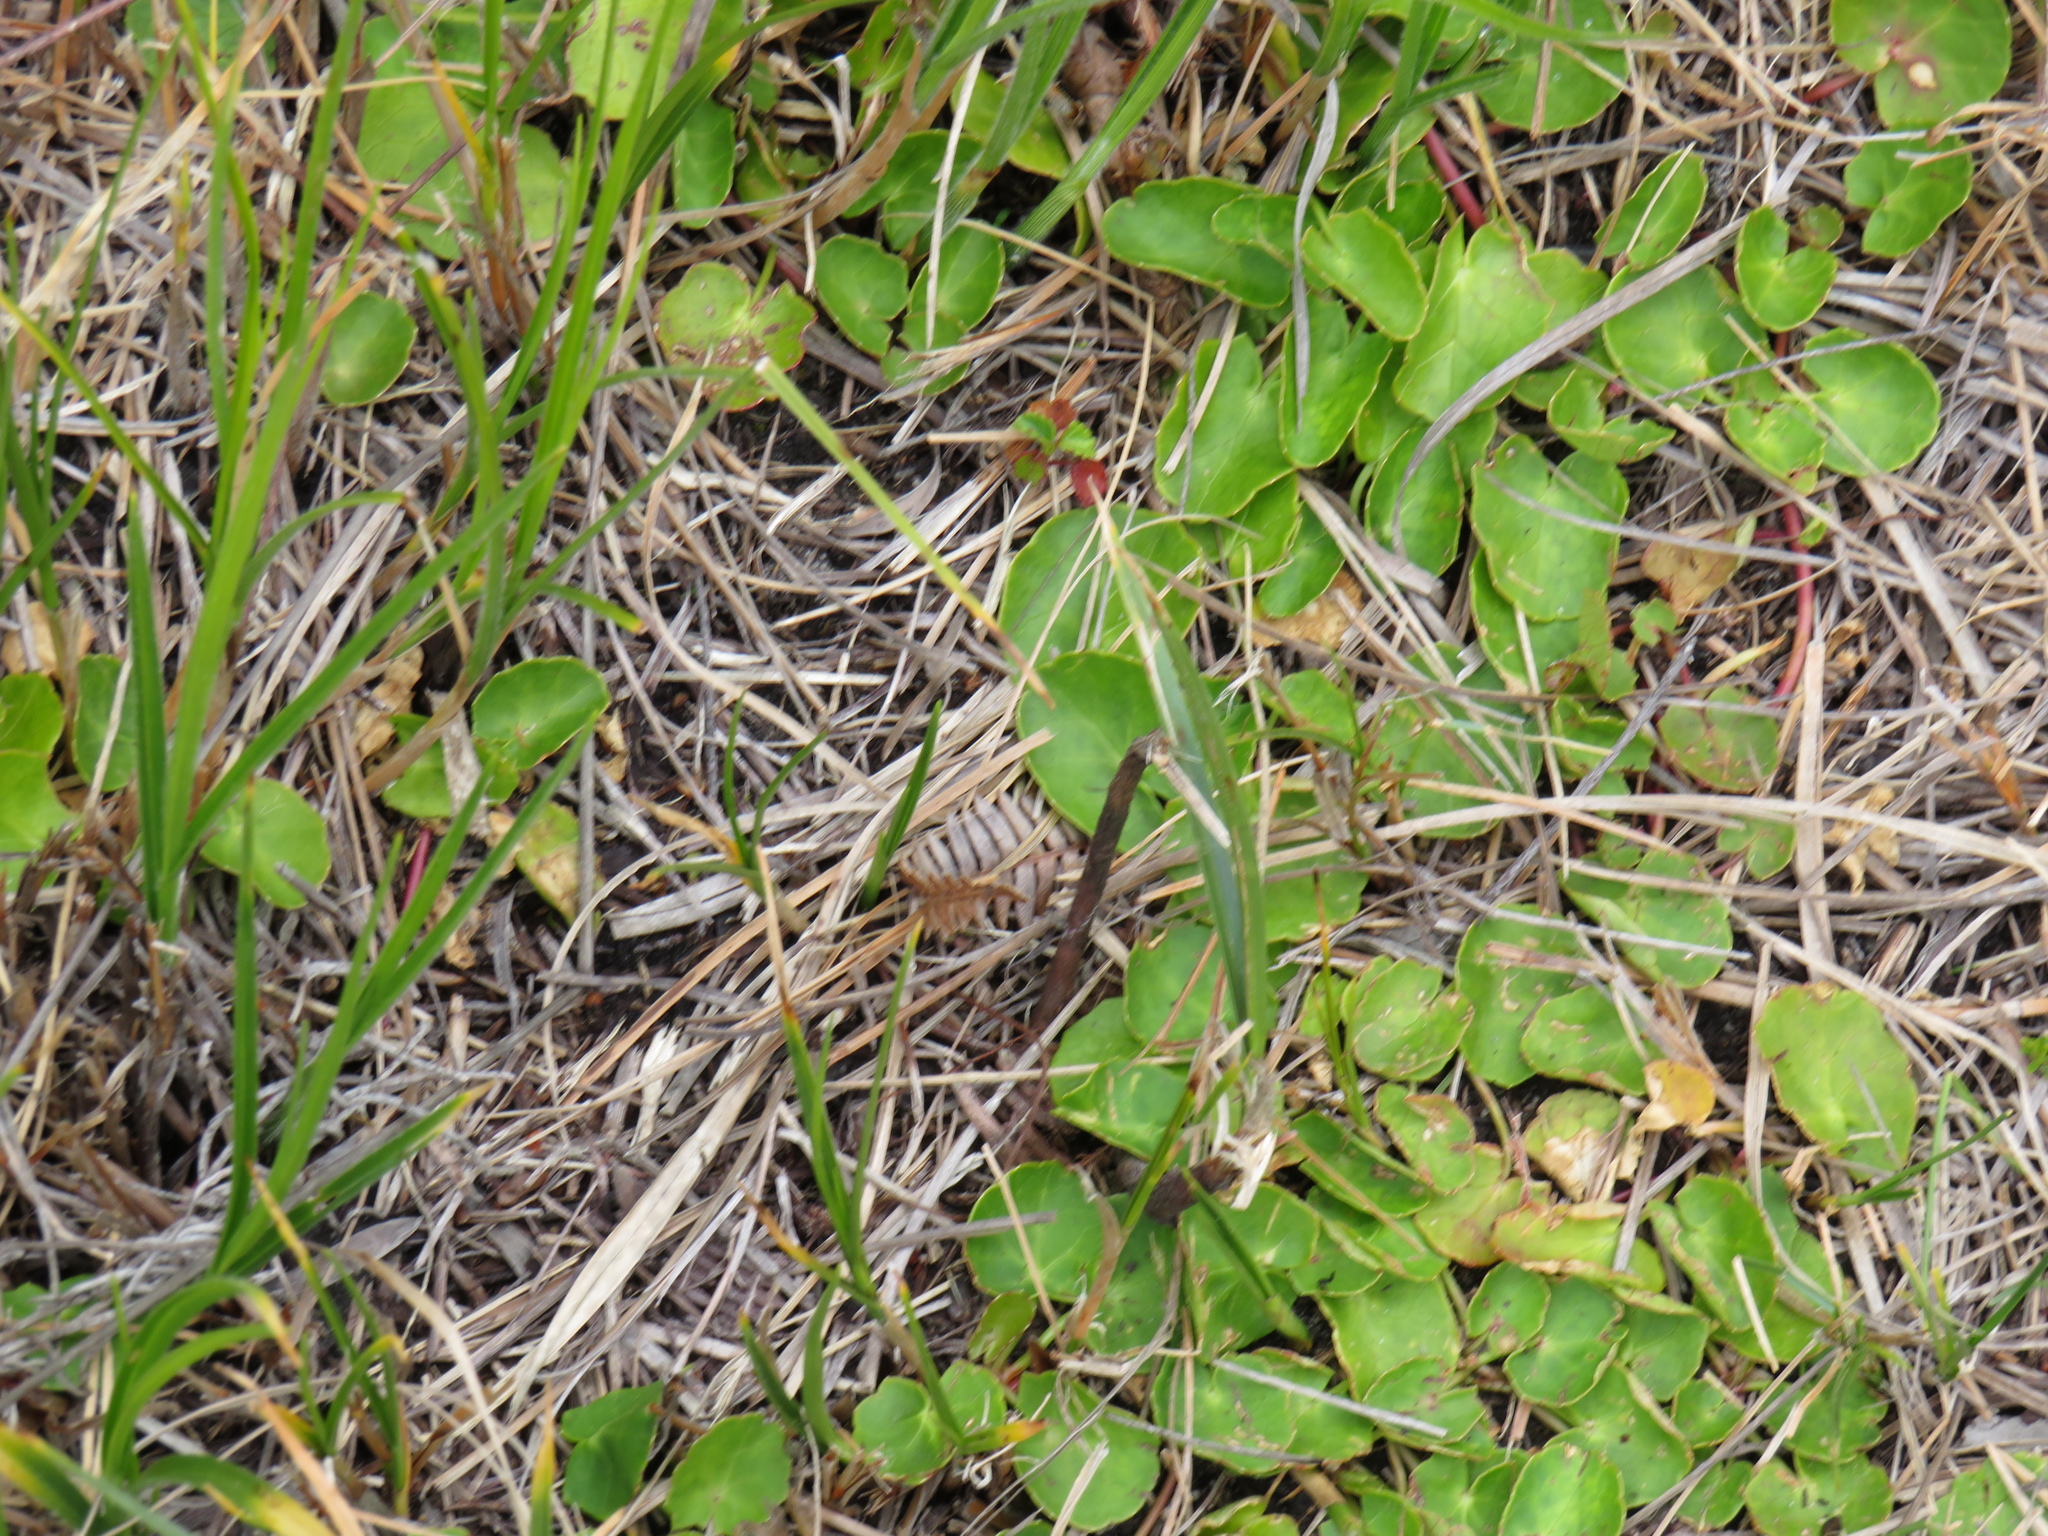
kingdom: Plantae
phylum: Tracheophyta
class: Magnoliopsida
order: Apiales
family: Apiaceae
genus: Centella
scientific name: Centella asiatica
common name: Spadeleaf
